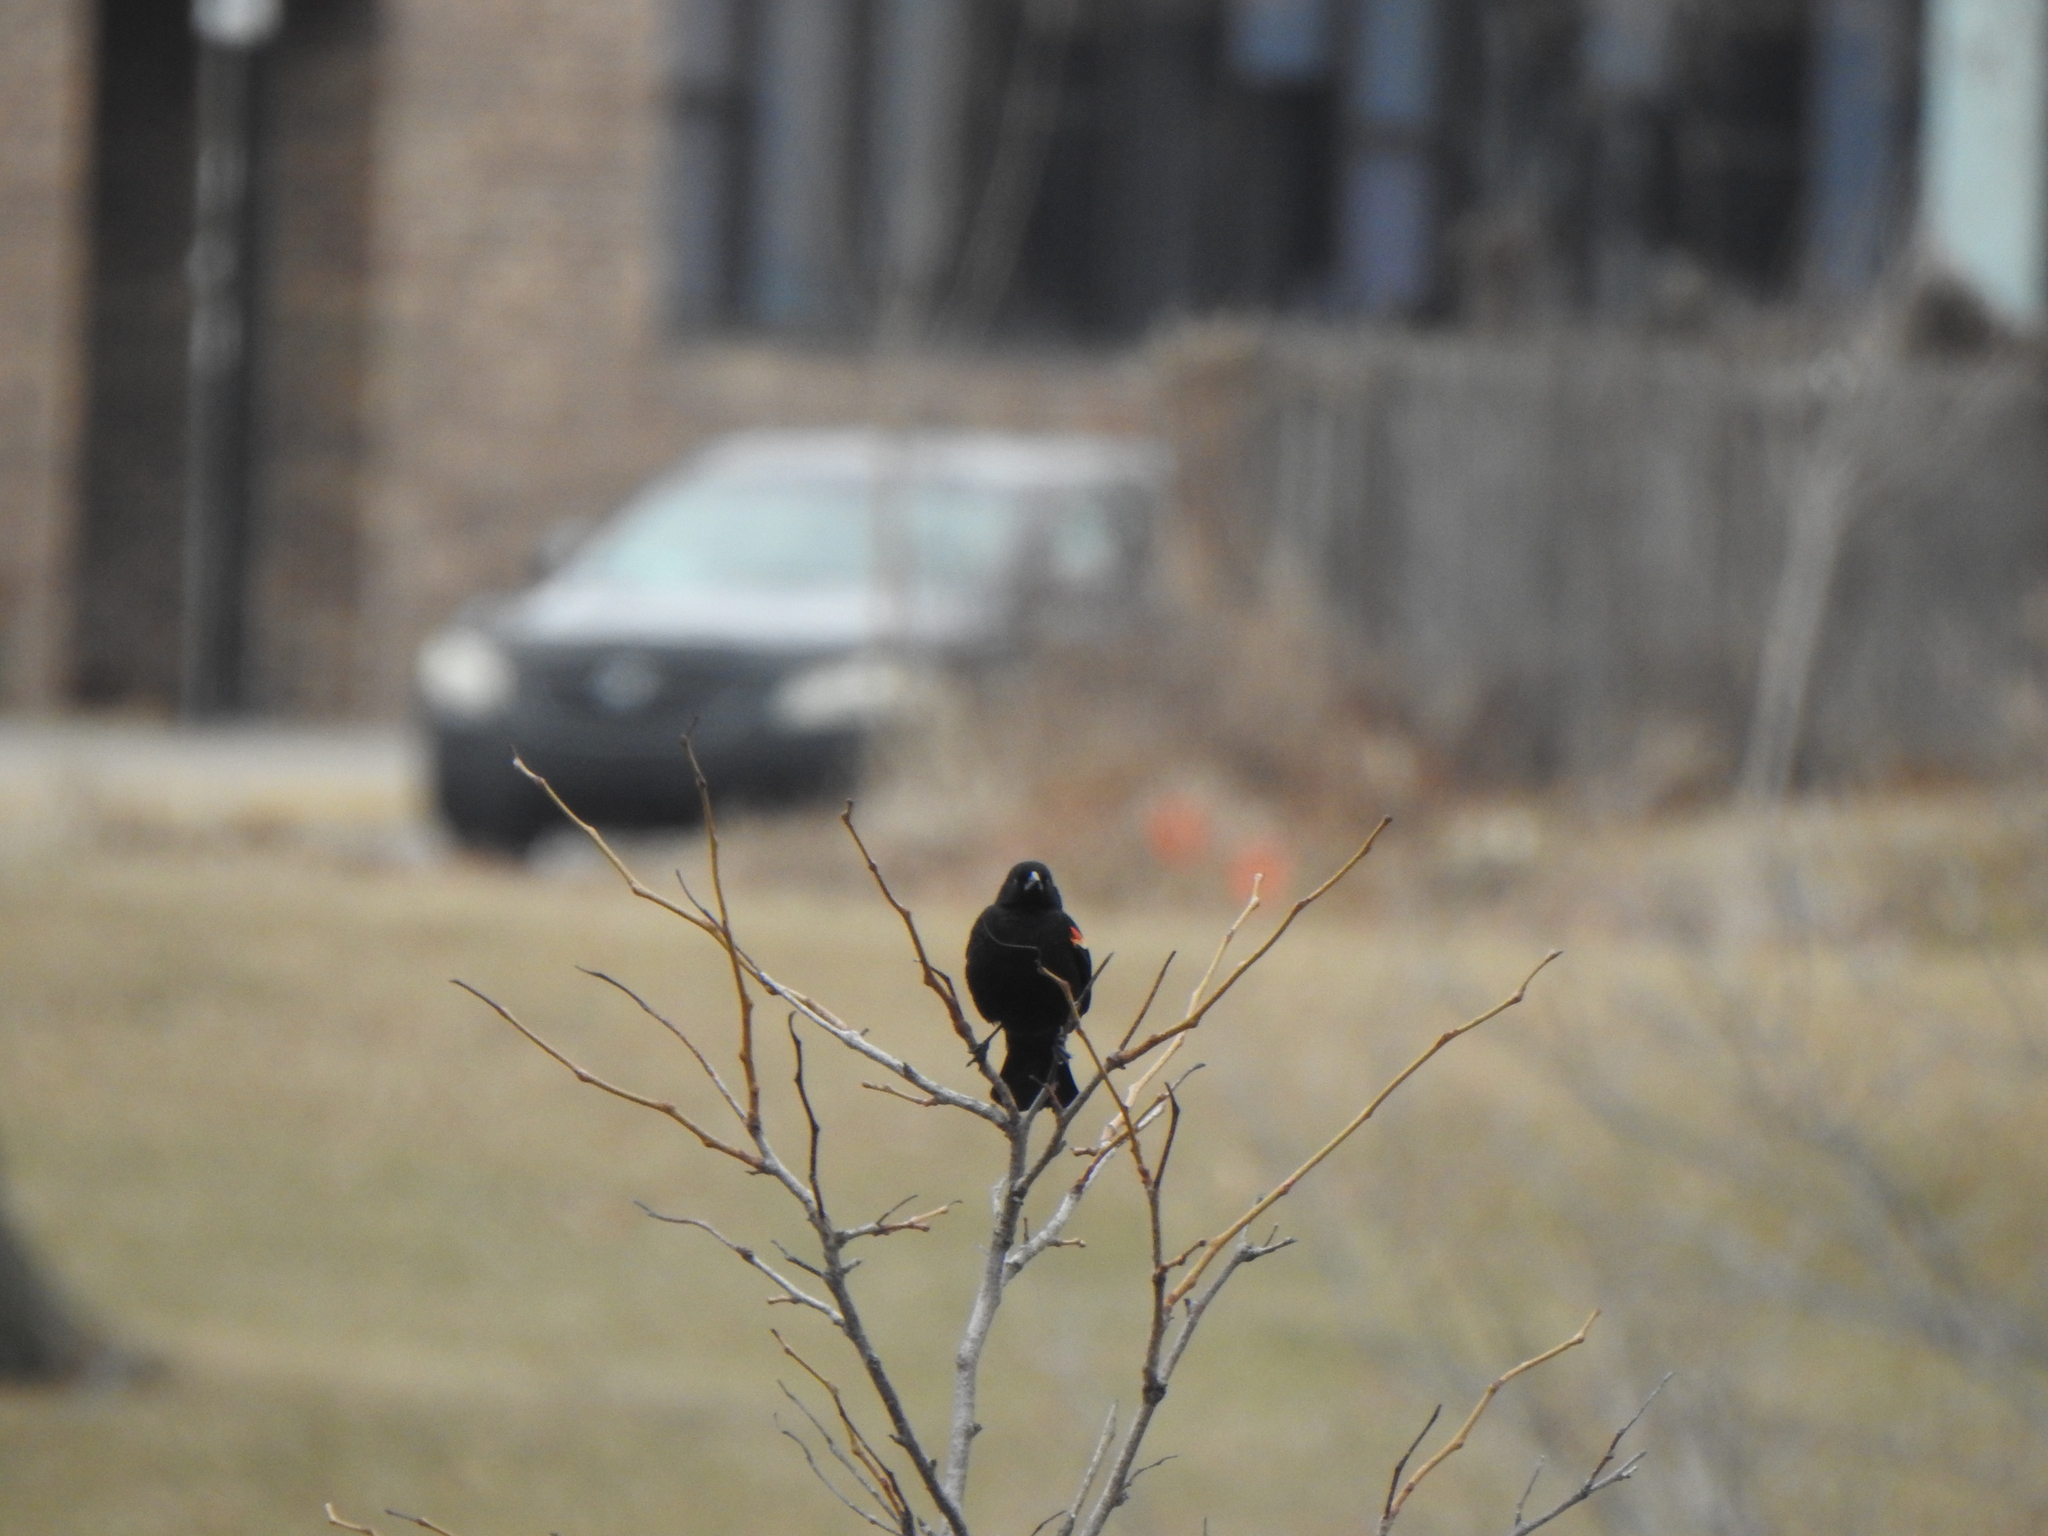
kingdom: Animalia
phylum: Chordata
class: Aves
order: Passeriformes
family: Icteridae
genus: Agelaius
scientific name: Agelaius phoeniceus
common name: Red-winged blackbird
